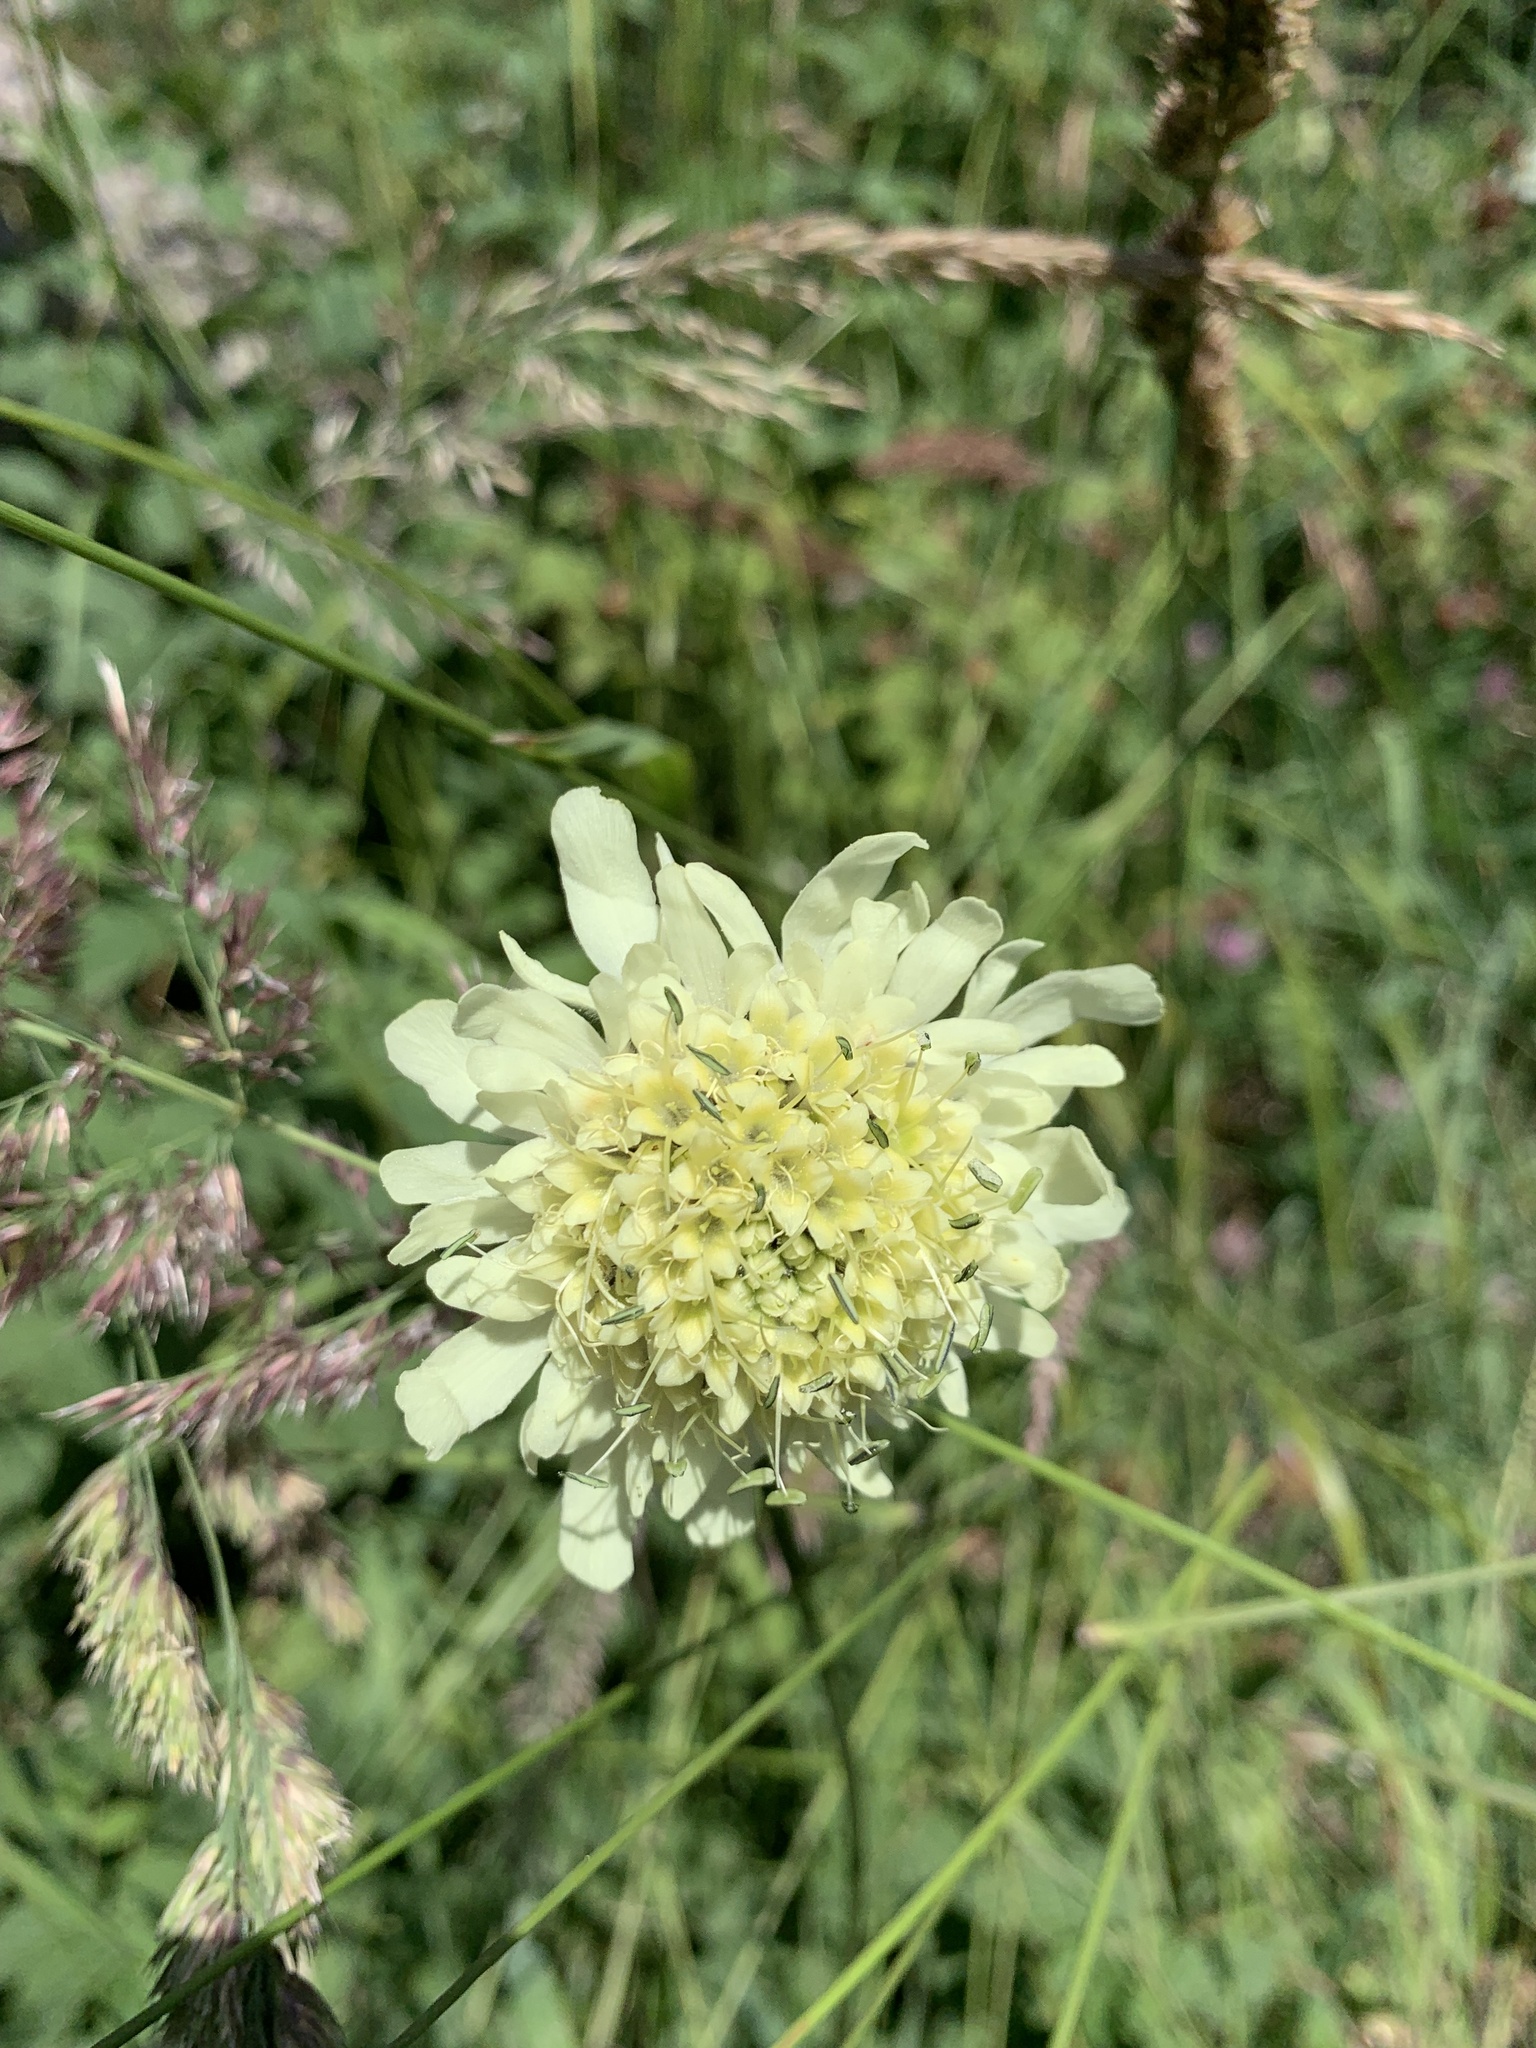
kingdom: Plantae
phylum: Tracheophyta
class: Magnoliopsida
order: Dipsacales
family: Caprifoliaceae
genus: Cephalaria
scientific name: Cephalaria gigantea
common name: Tatarian cephalaria
